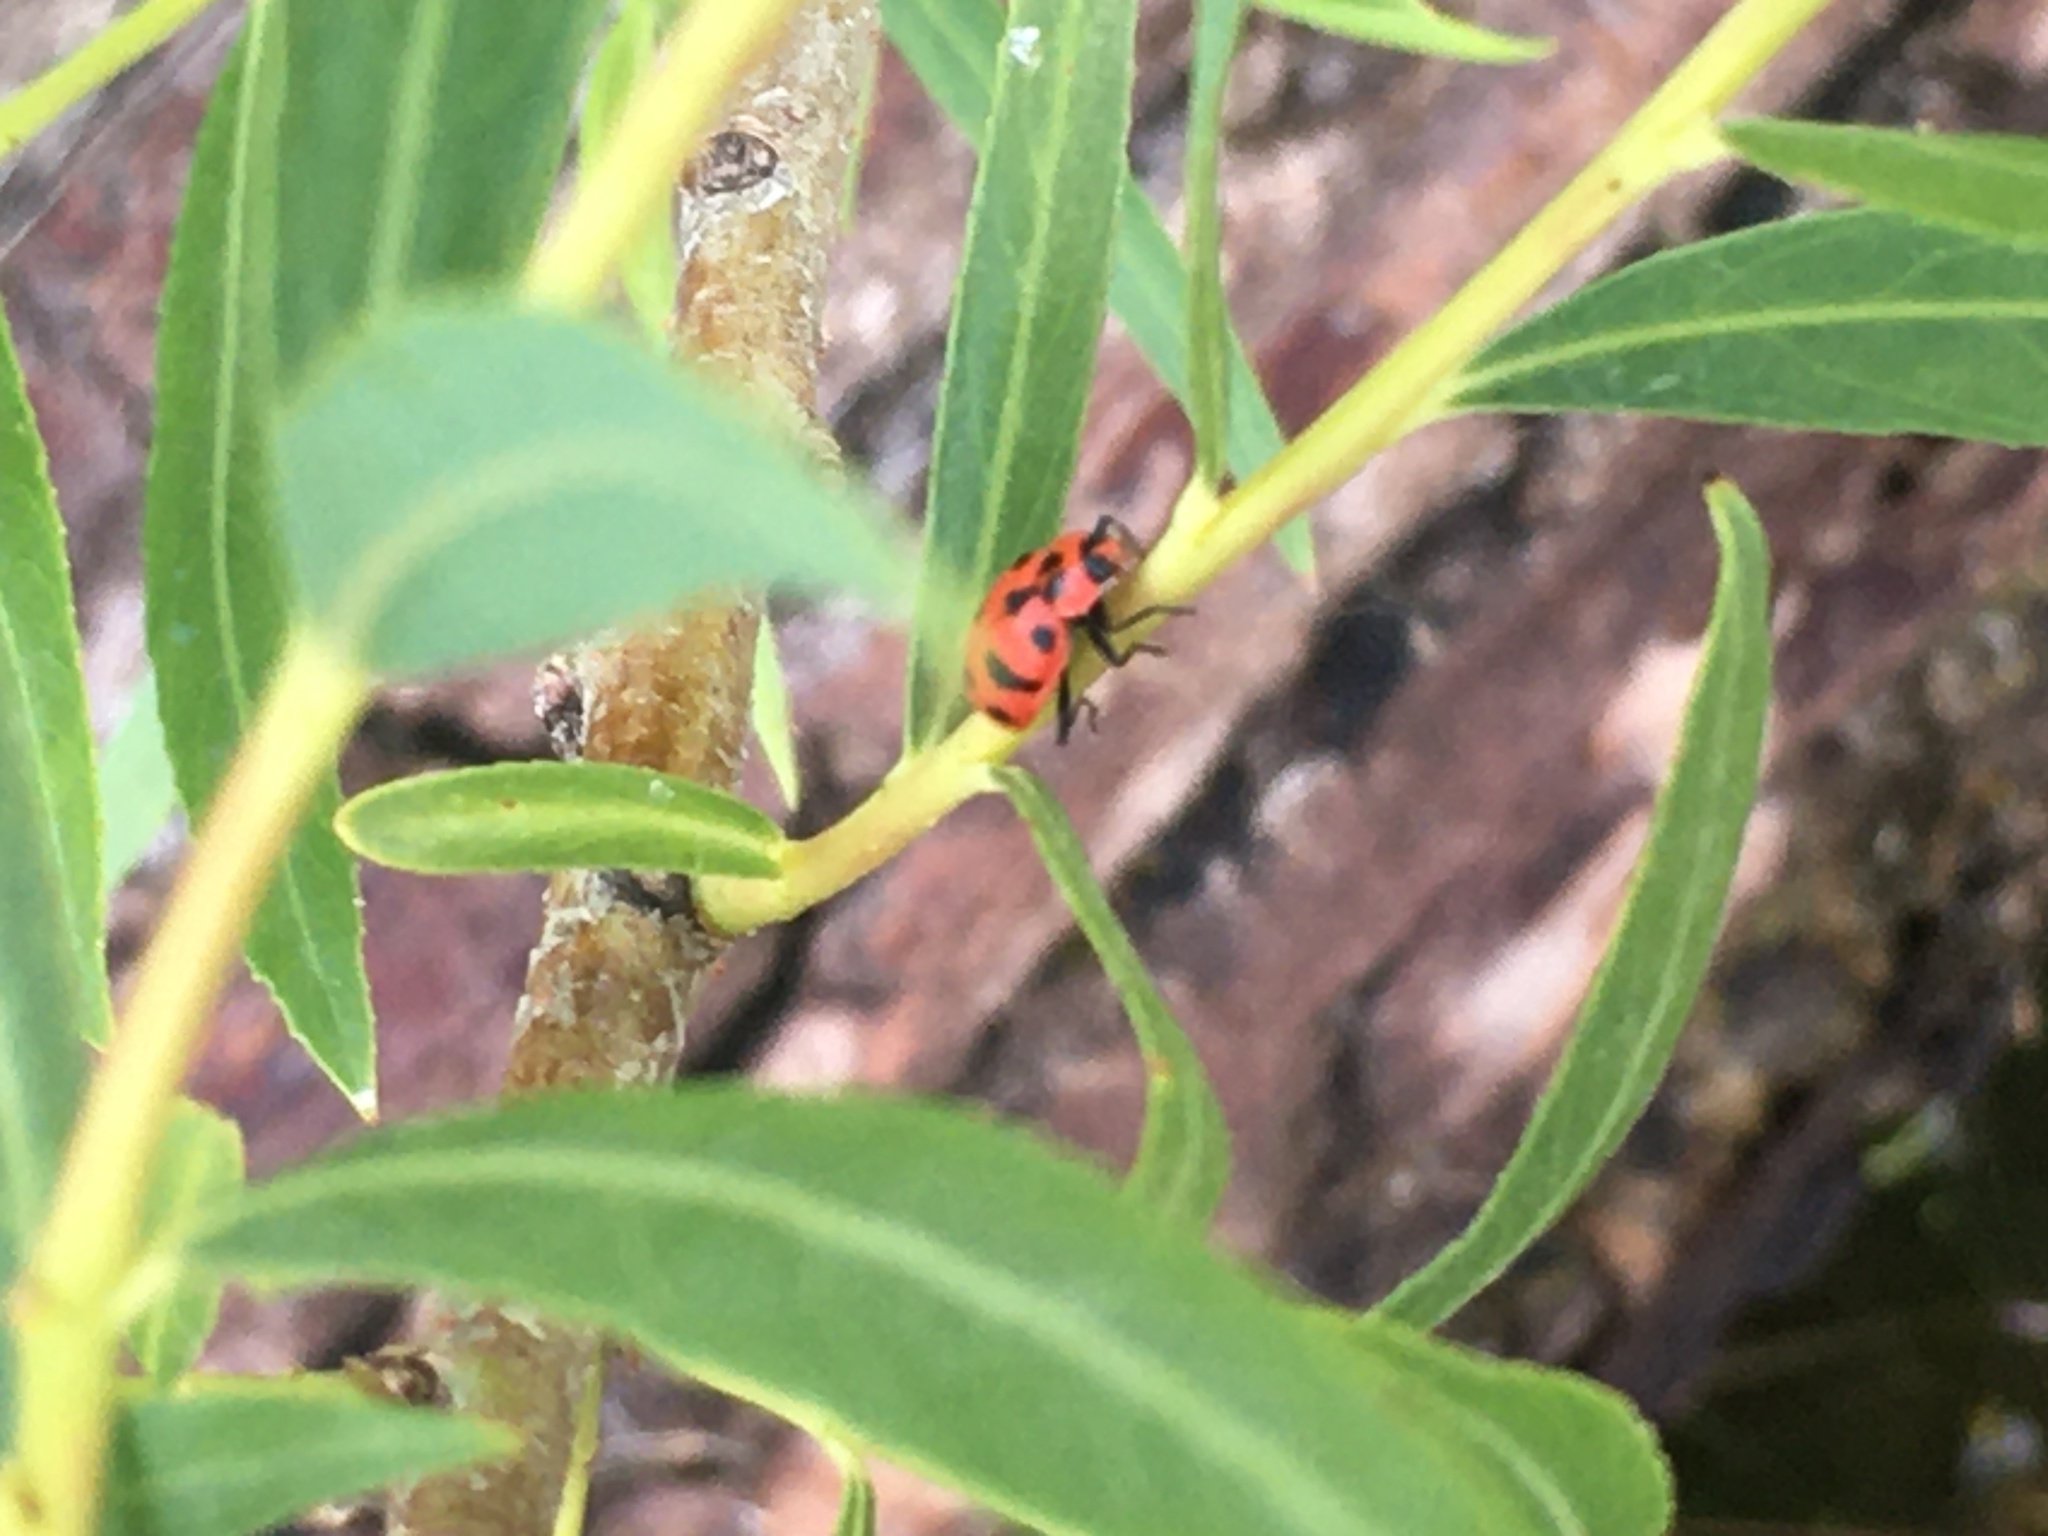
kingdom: Animalia
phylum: Arthropoda
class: Insecta
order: Coleoptera
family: Coccinellidae
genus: Coleomegilla
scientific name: Coleomegilla maculata
